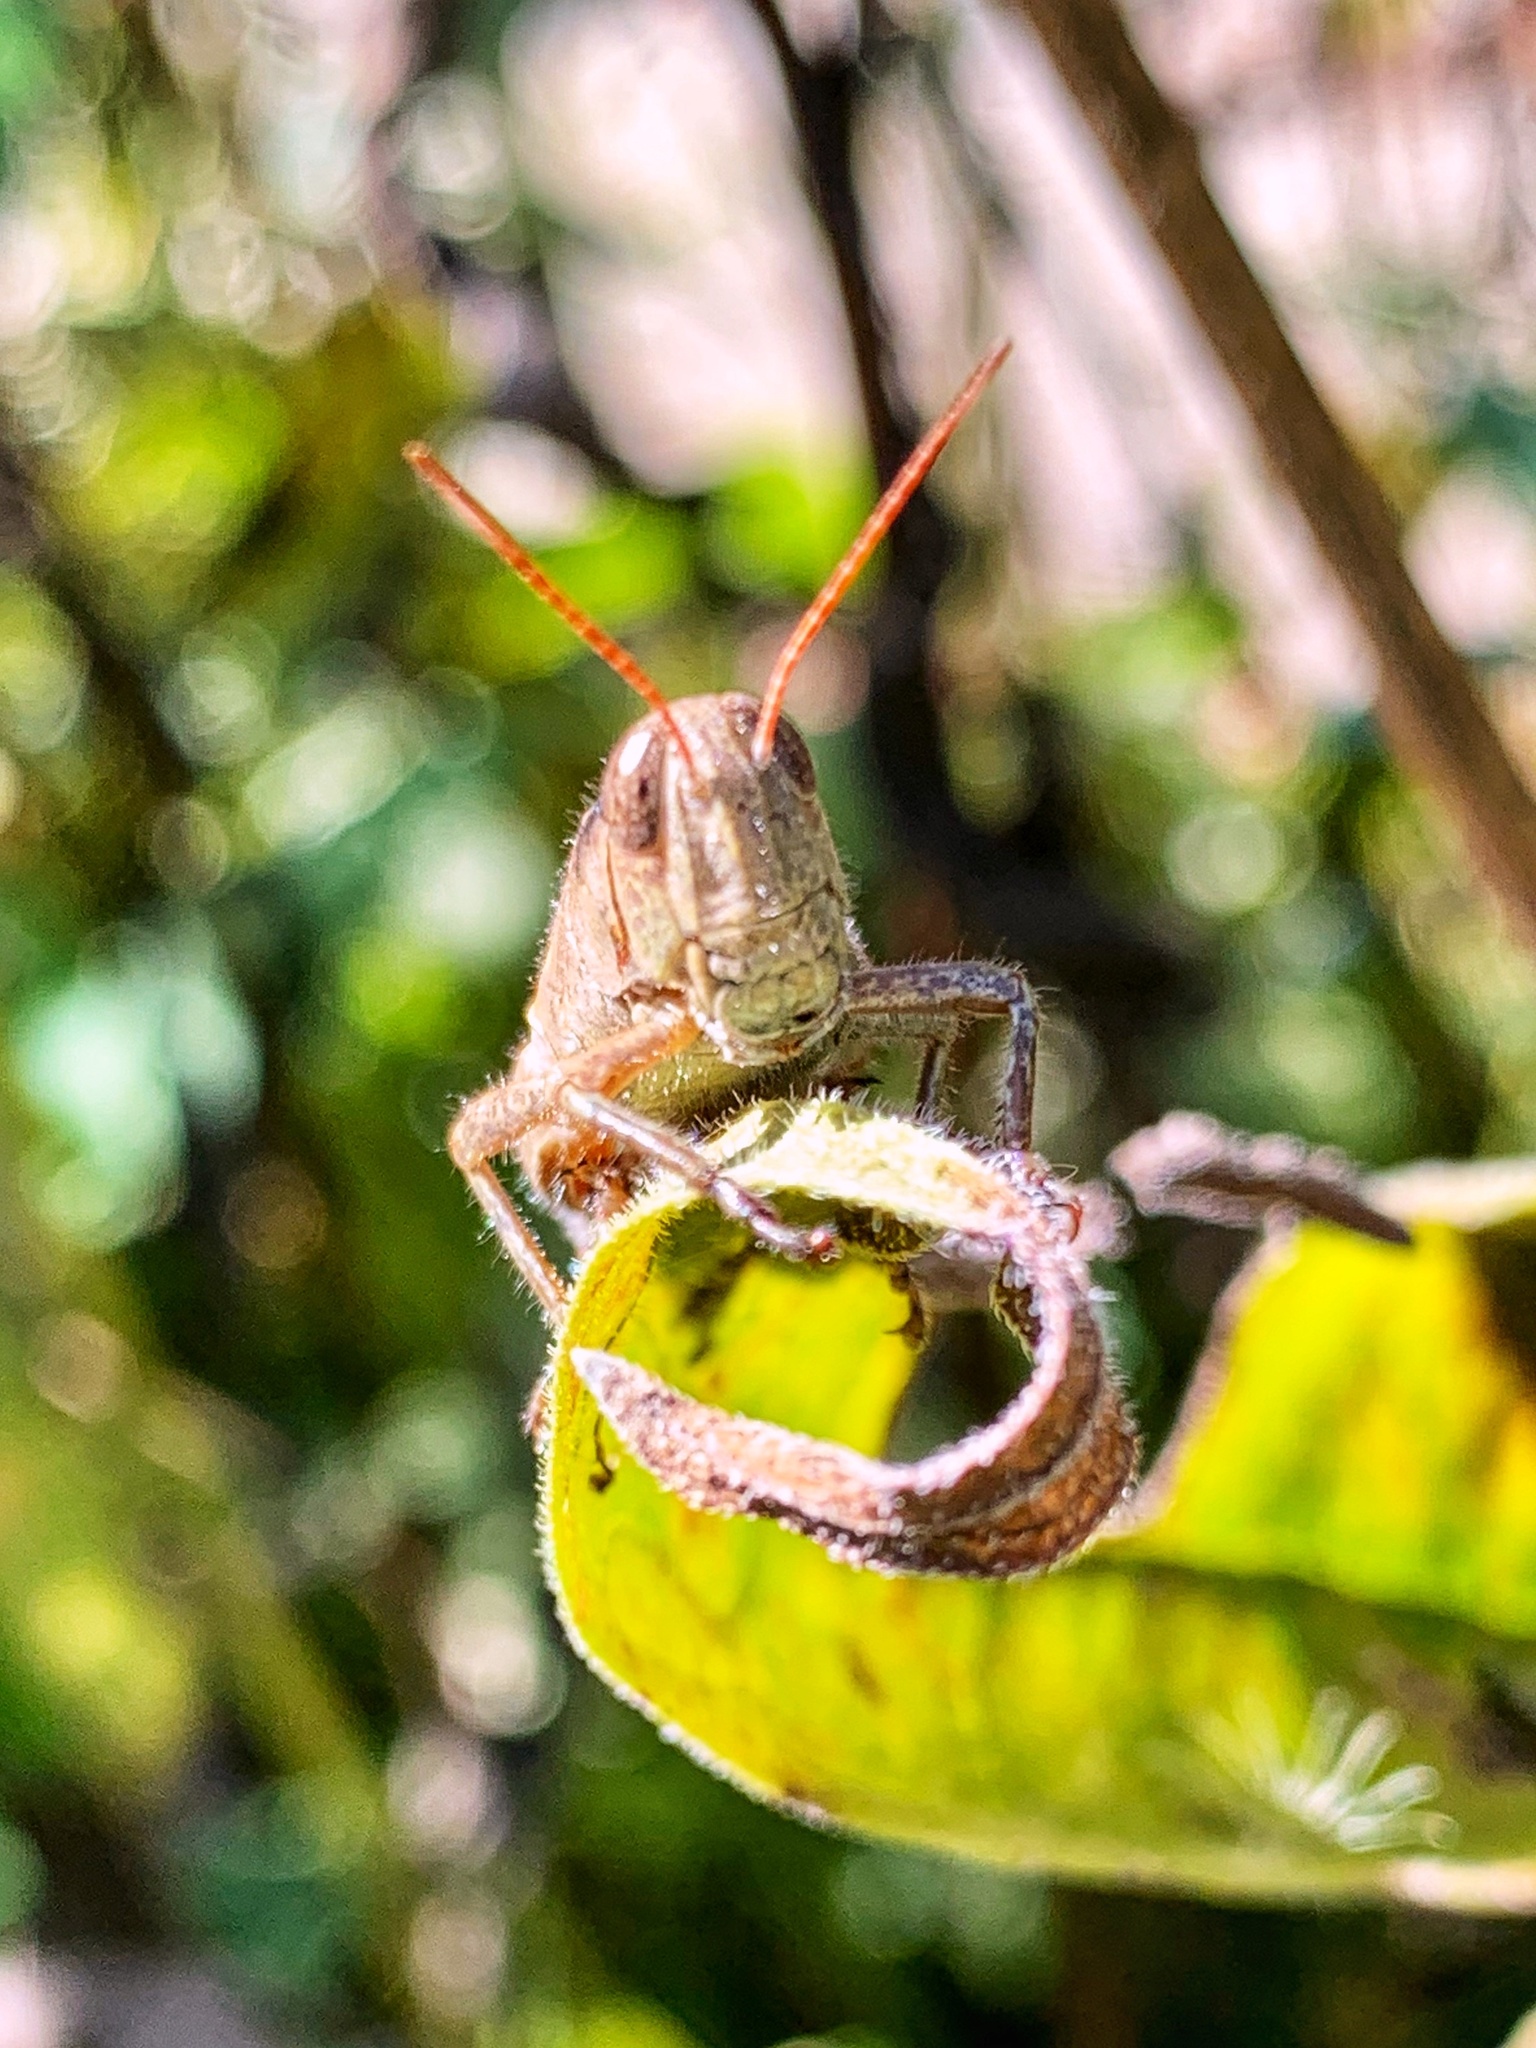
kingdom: Animalia
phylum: Arthropoda
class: Insecta
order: Orthoptera
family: Acrididae
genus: Melanoplus
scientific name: Melanoplus scudderi
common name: Scudder's short-winged locust
